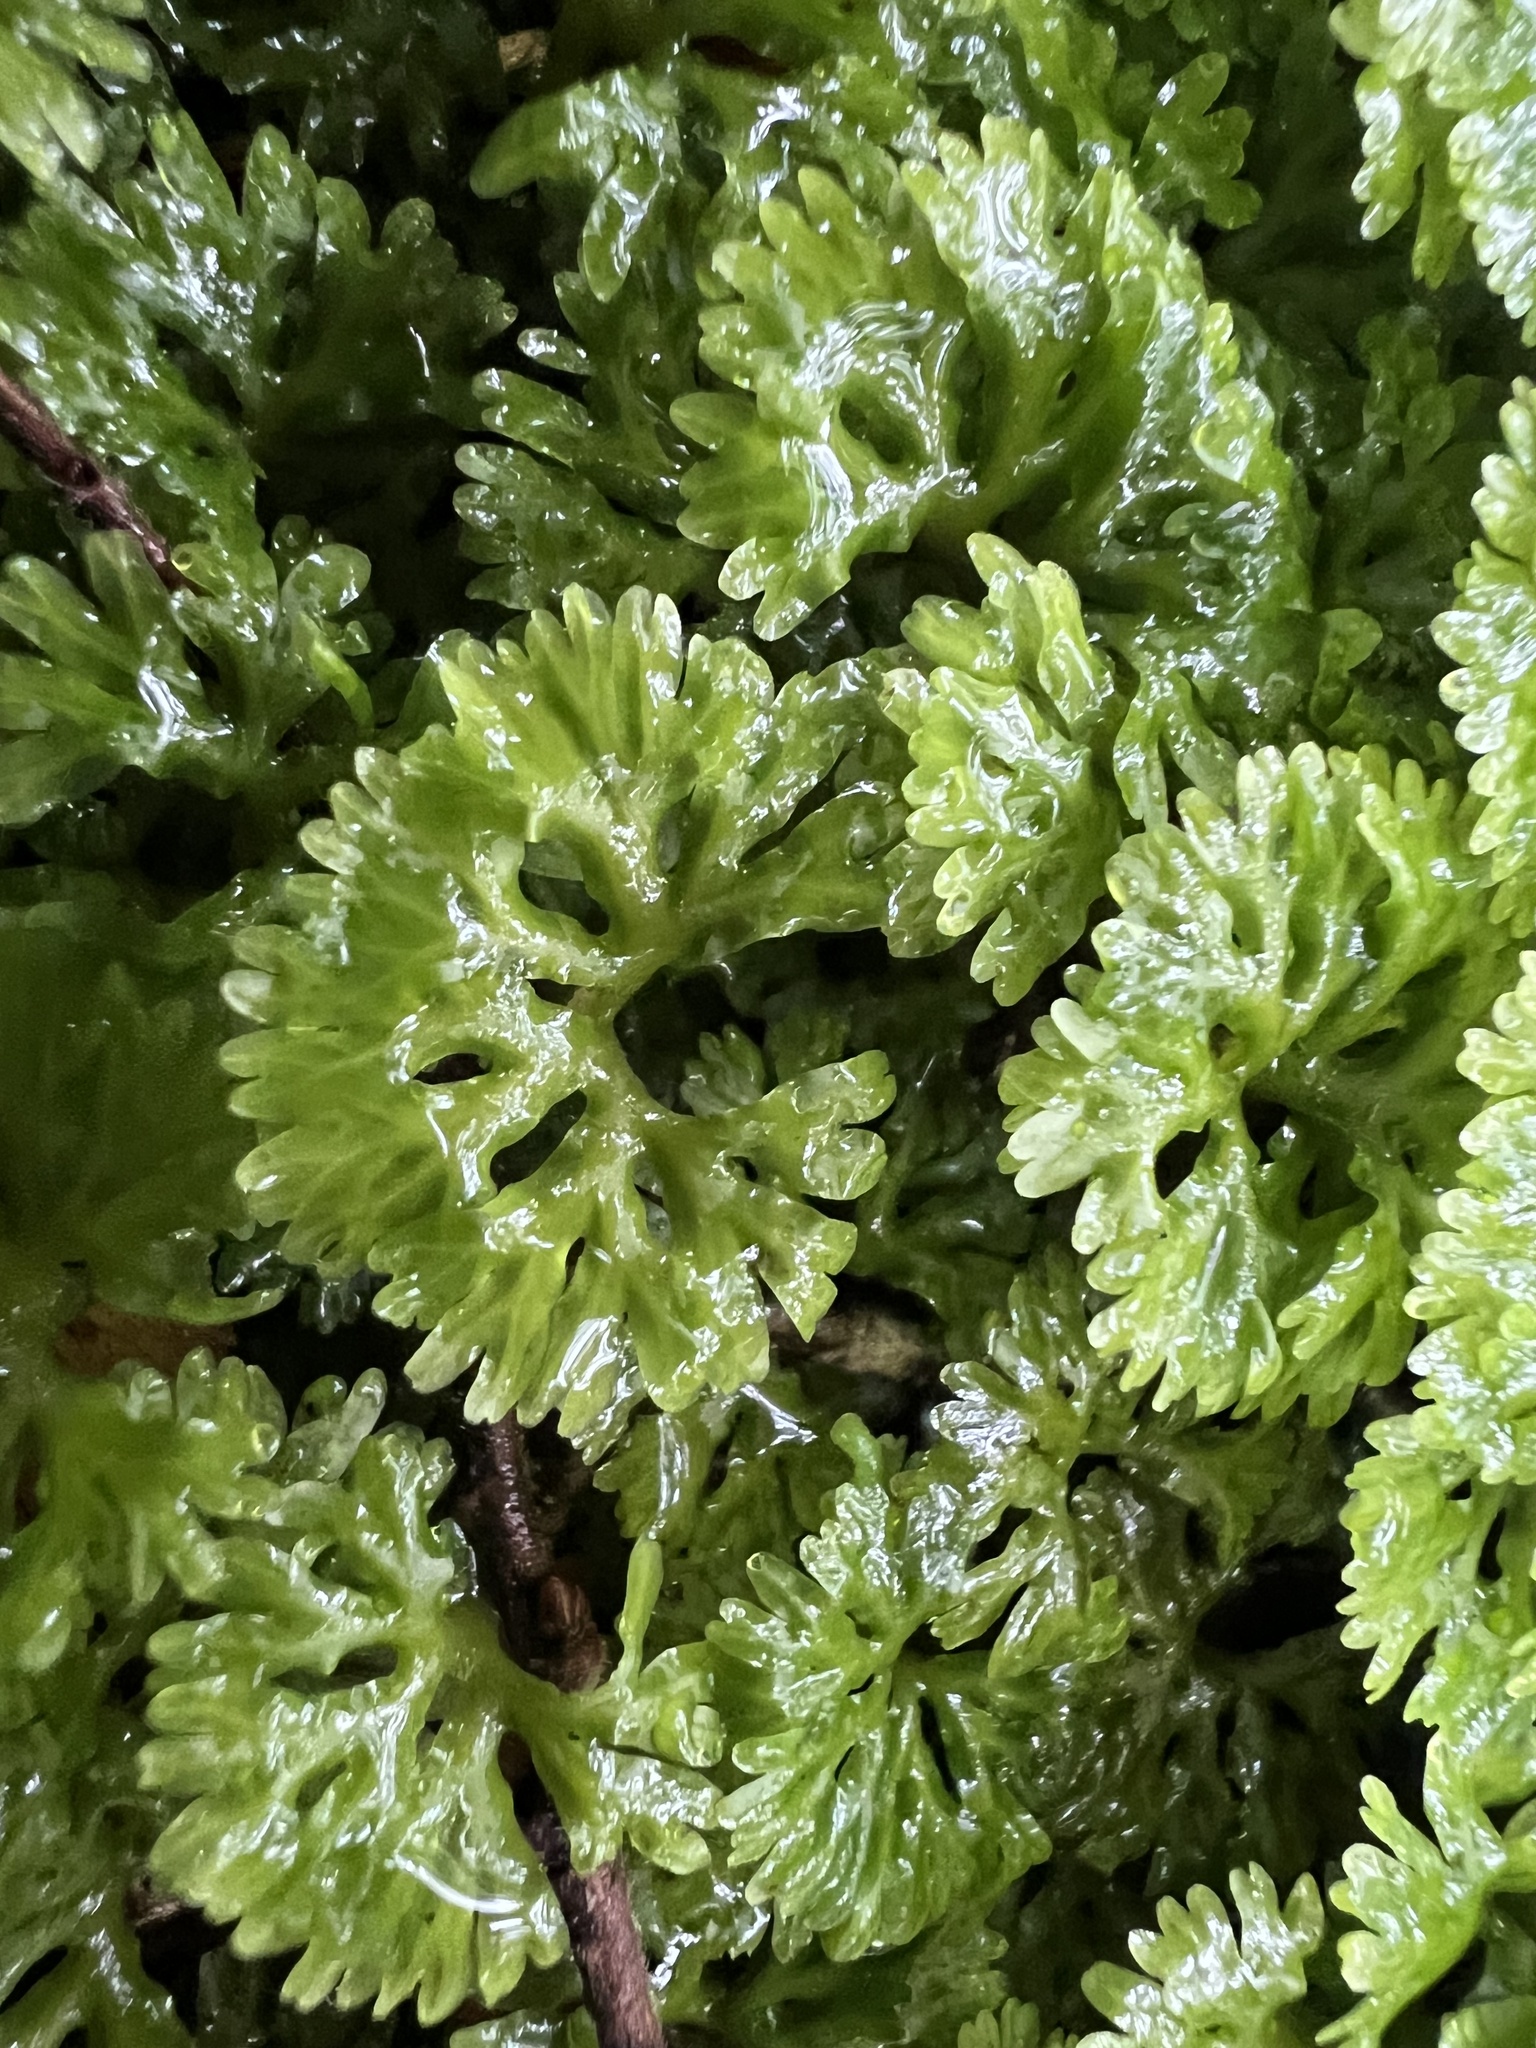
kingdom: Plantae
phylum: Marchantiophyta
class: Jungermanniopsida
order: Pallaviciniales
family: Hymenophytaceae
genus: Hymenophyton
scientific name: Hymenophyton flabellatum
